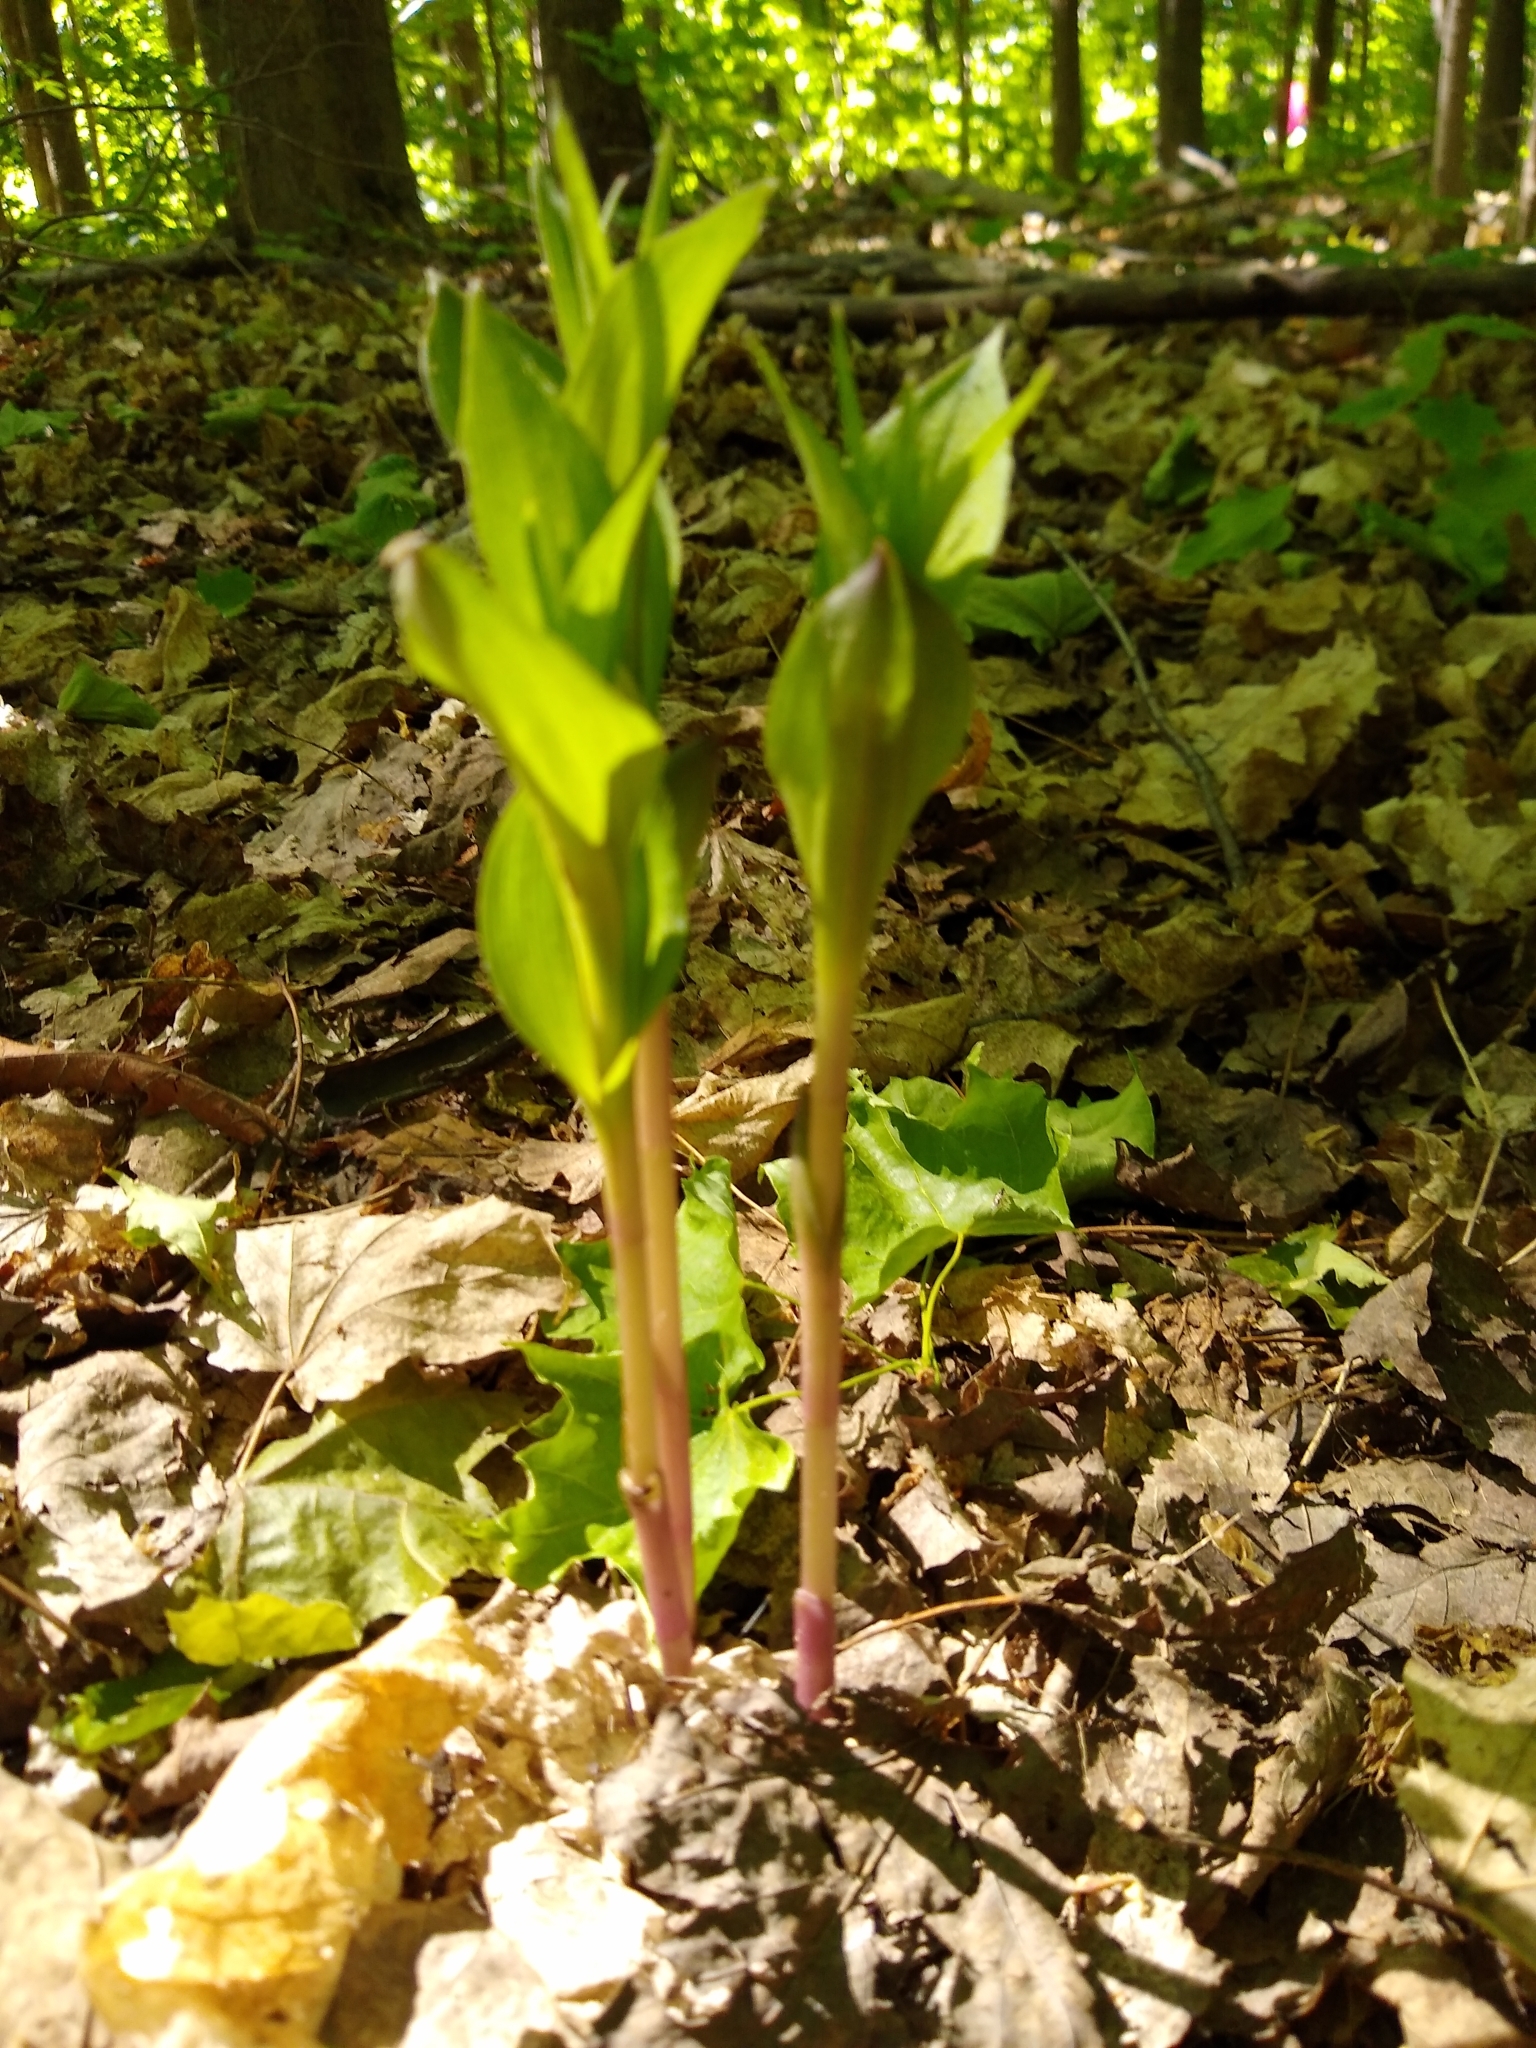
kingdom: Plantae
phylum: Tracheophyta
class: Liliopsida
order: Asparagales
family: Orchidaceae
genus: Epipactis
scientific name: Epipactis helleborine
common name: Broad-leaved helleborine
